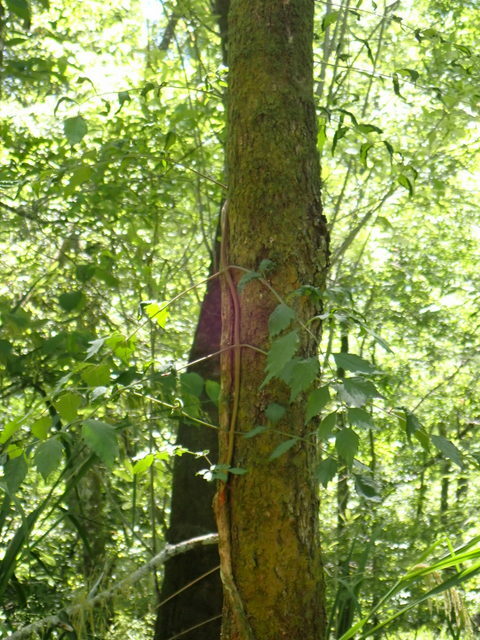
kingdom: Plantae
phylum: Tracheophyta
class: Magnoliopsida
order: Lamiales
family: Bignoniaceae
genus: Campsis
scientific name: Campsis radicans
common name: Trumpet-creeper
